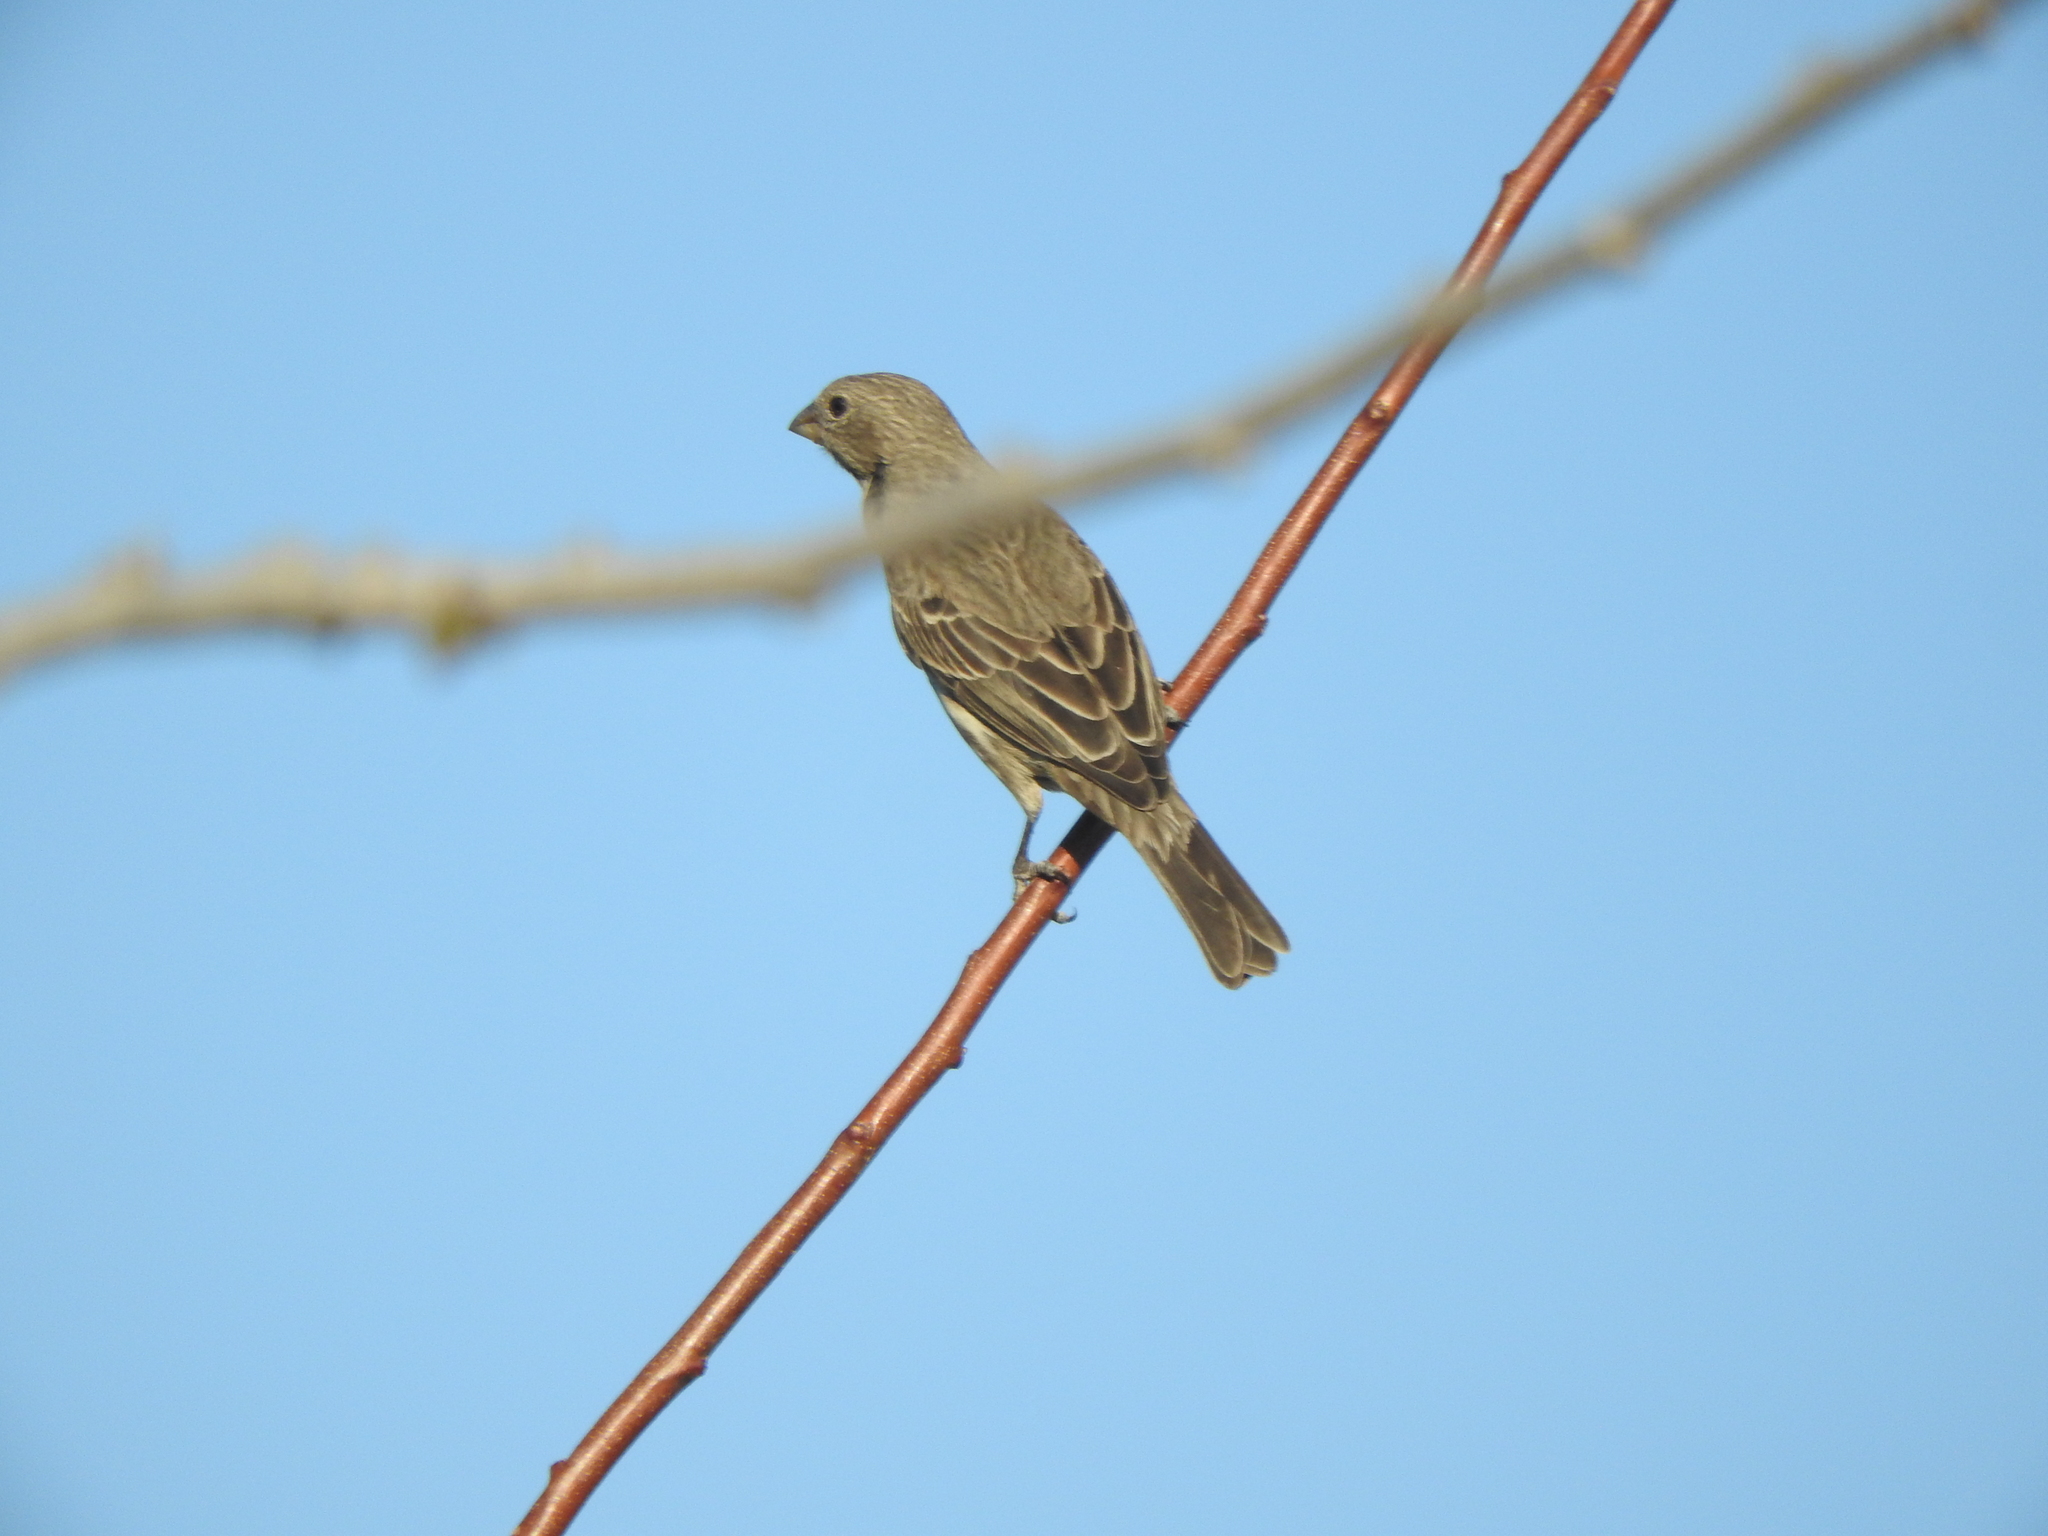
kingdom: Animalia
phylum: Chordata
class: Aves
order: Passeriformes
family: Fringillidae
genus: Haemorhous
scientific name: Haemorhous mexicanus
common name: House finch
